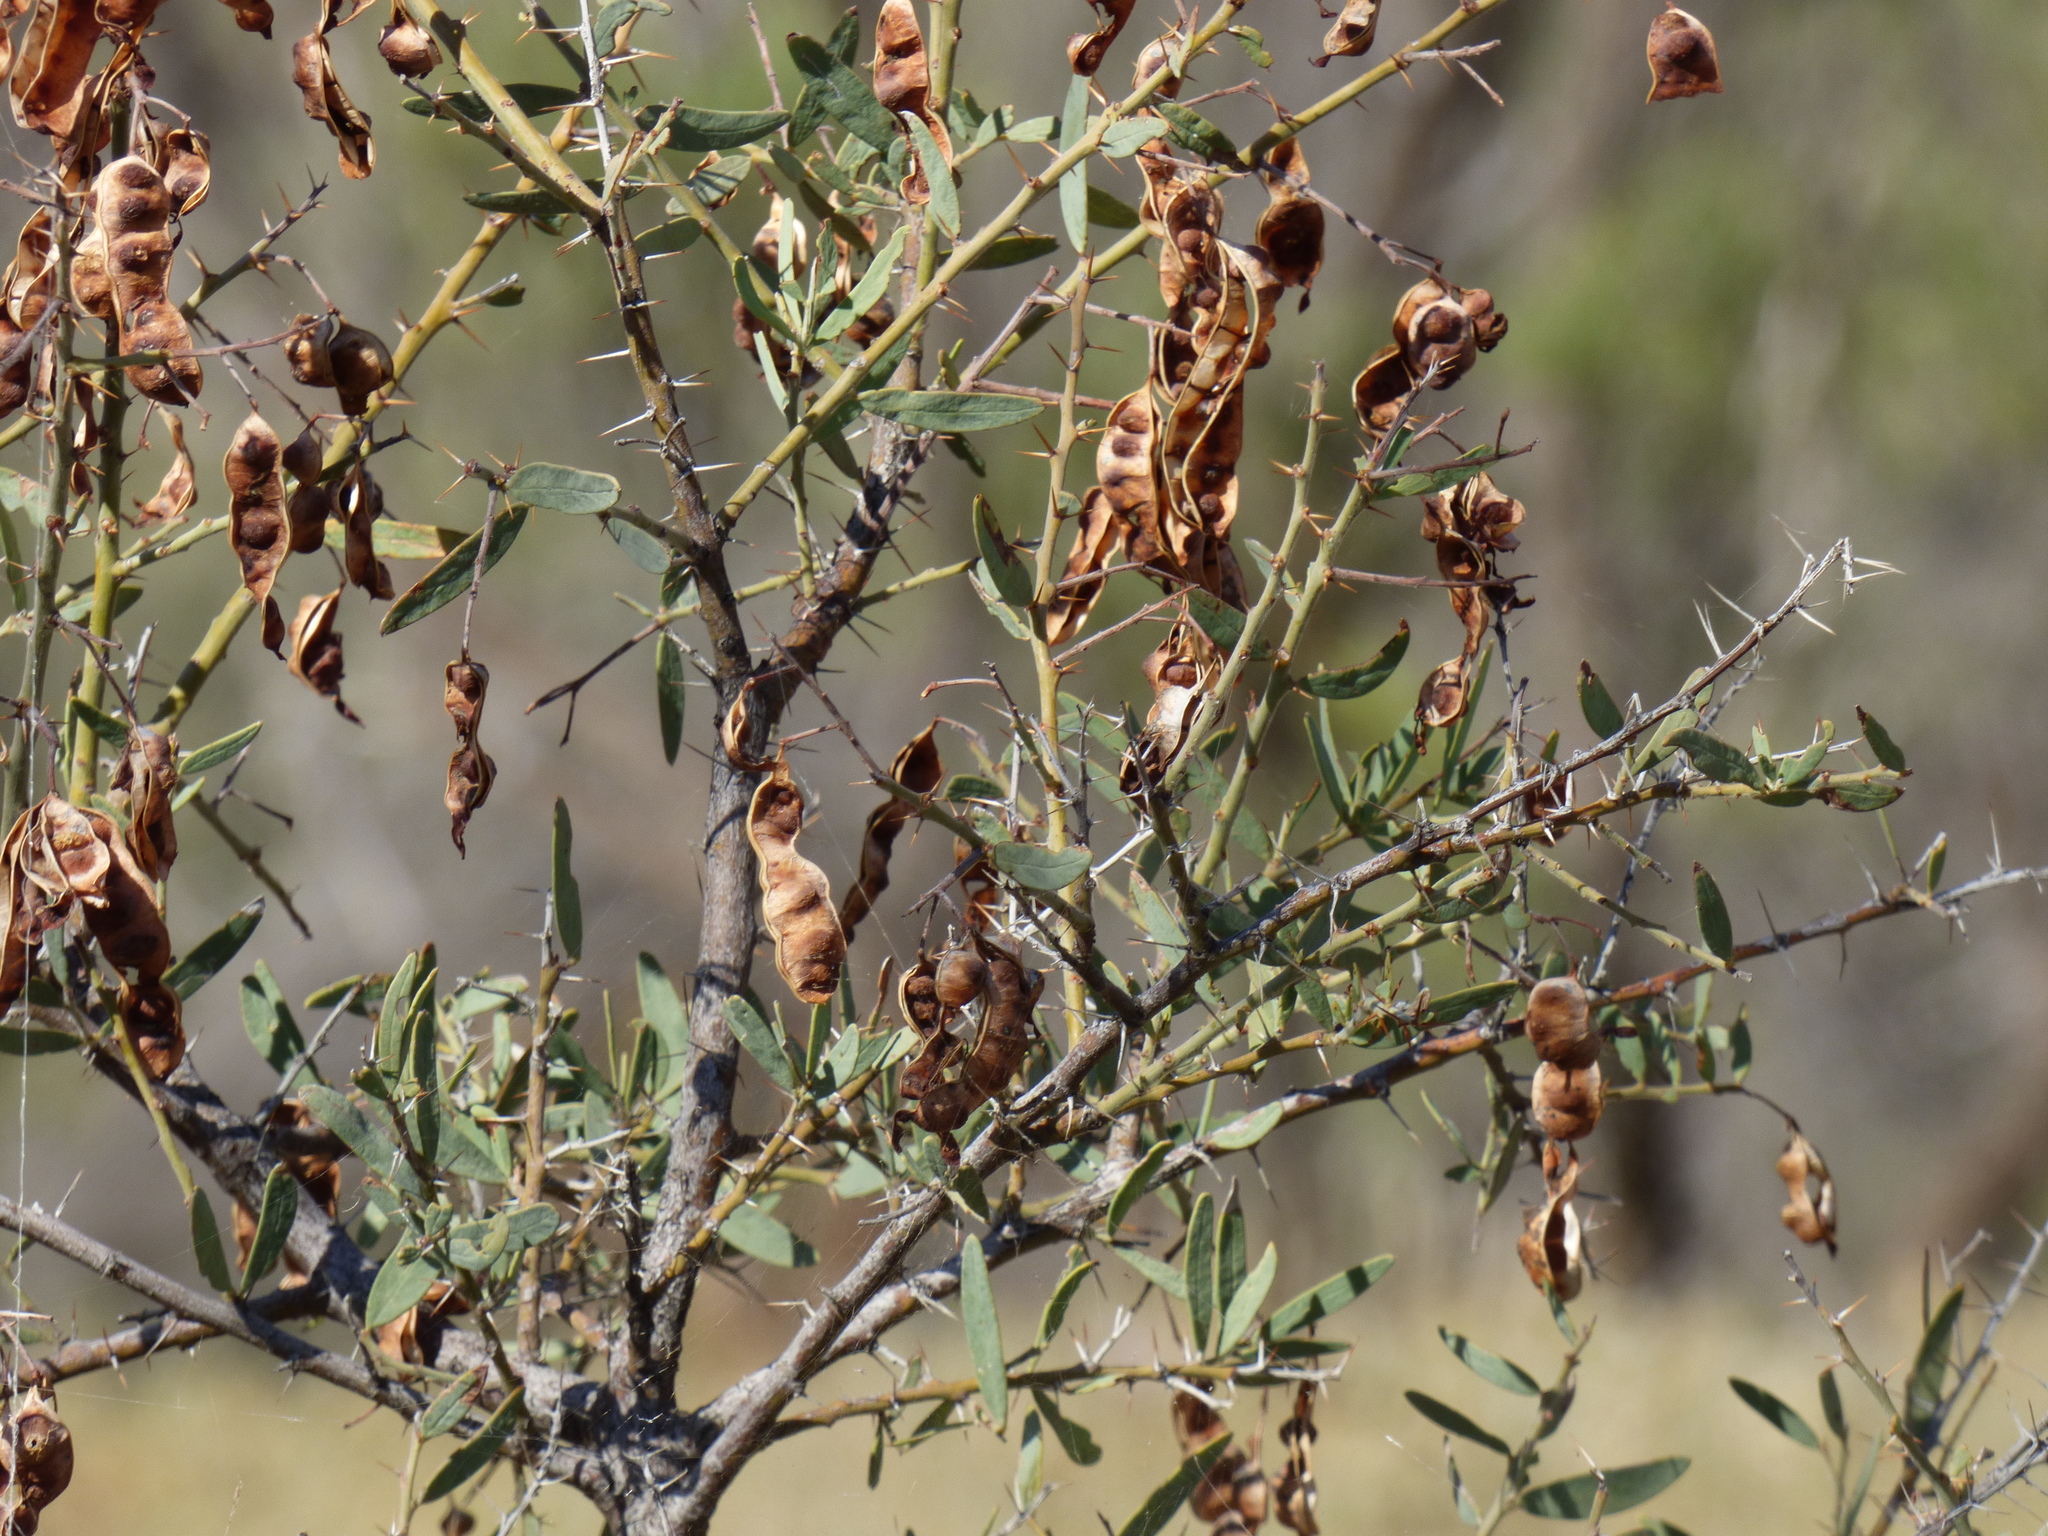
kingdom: Plantae
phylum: Tracheophyta
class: Magnoliopsida
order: Fabales
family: Fabaceae
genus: Acacia
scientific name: Acacia victoriae
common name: Bramble wattle
